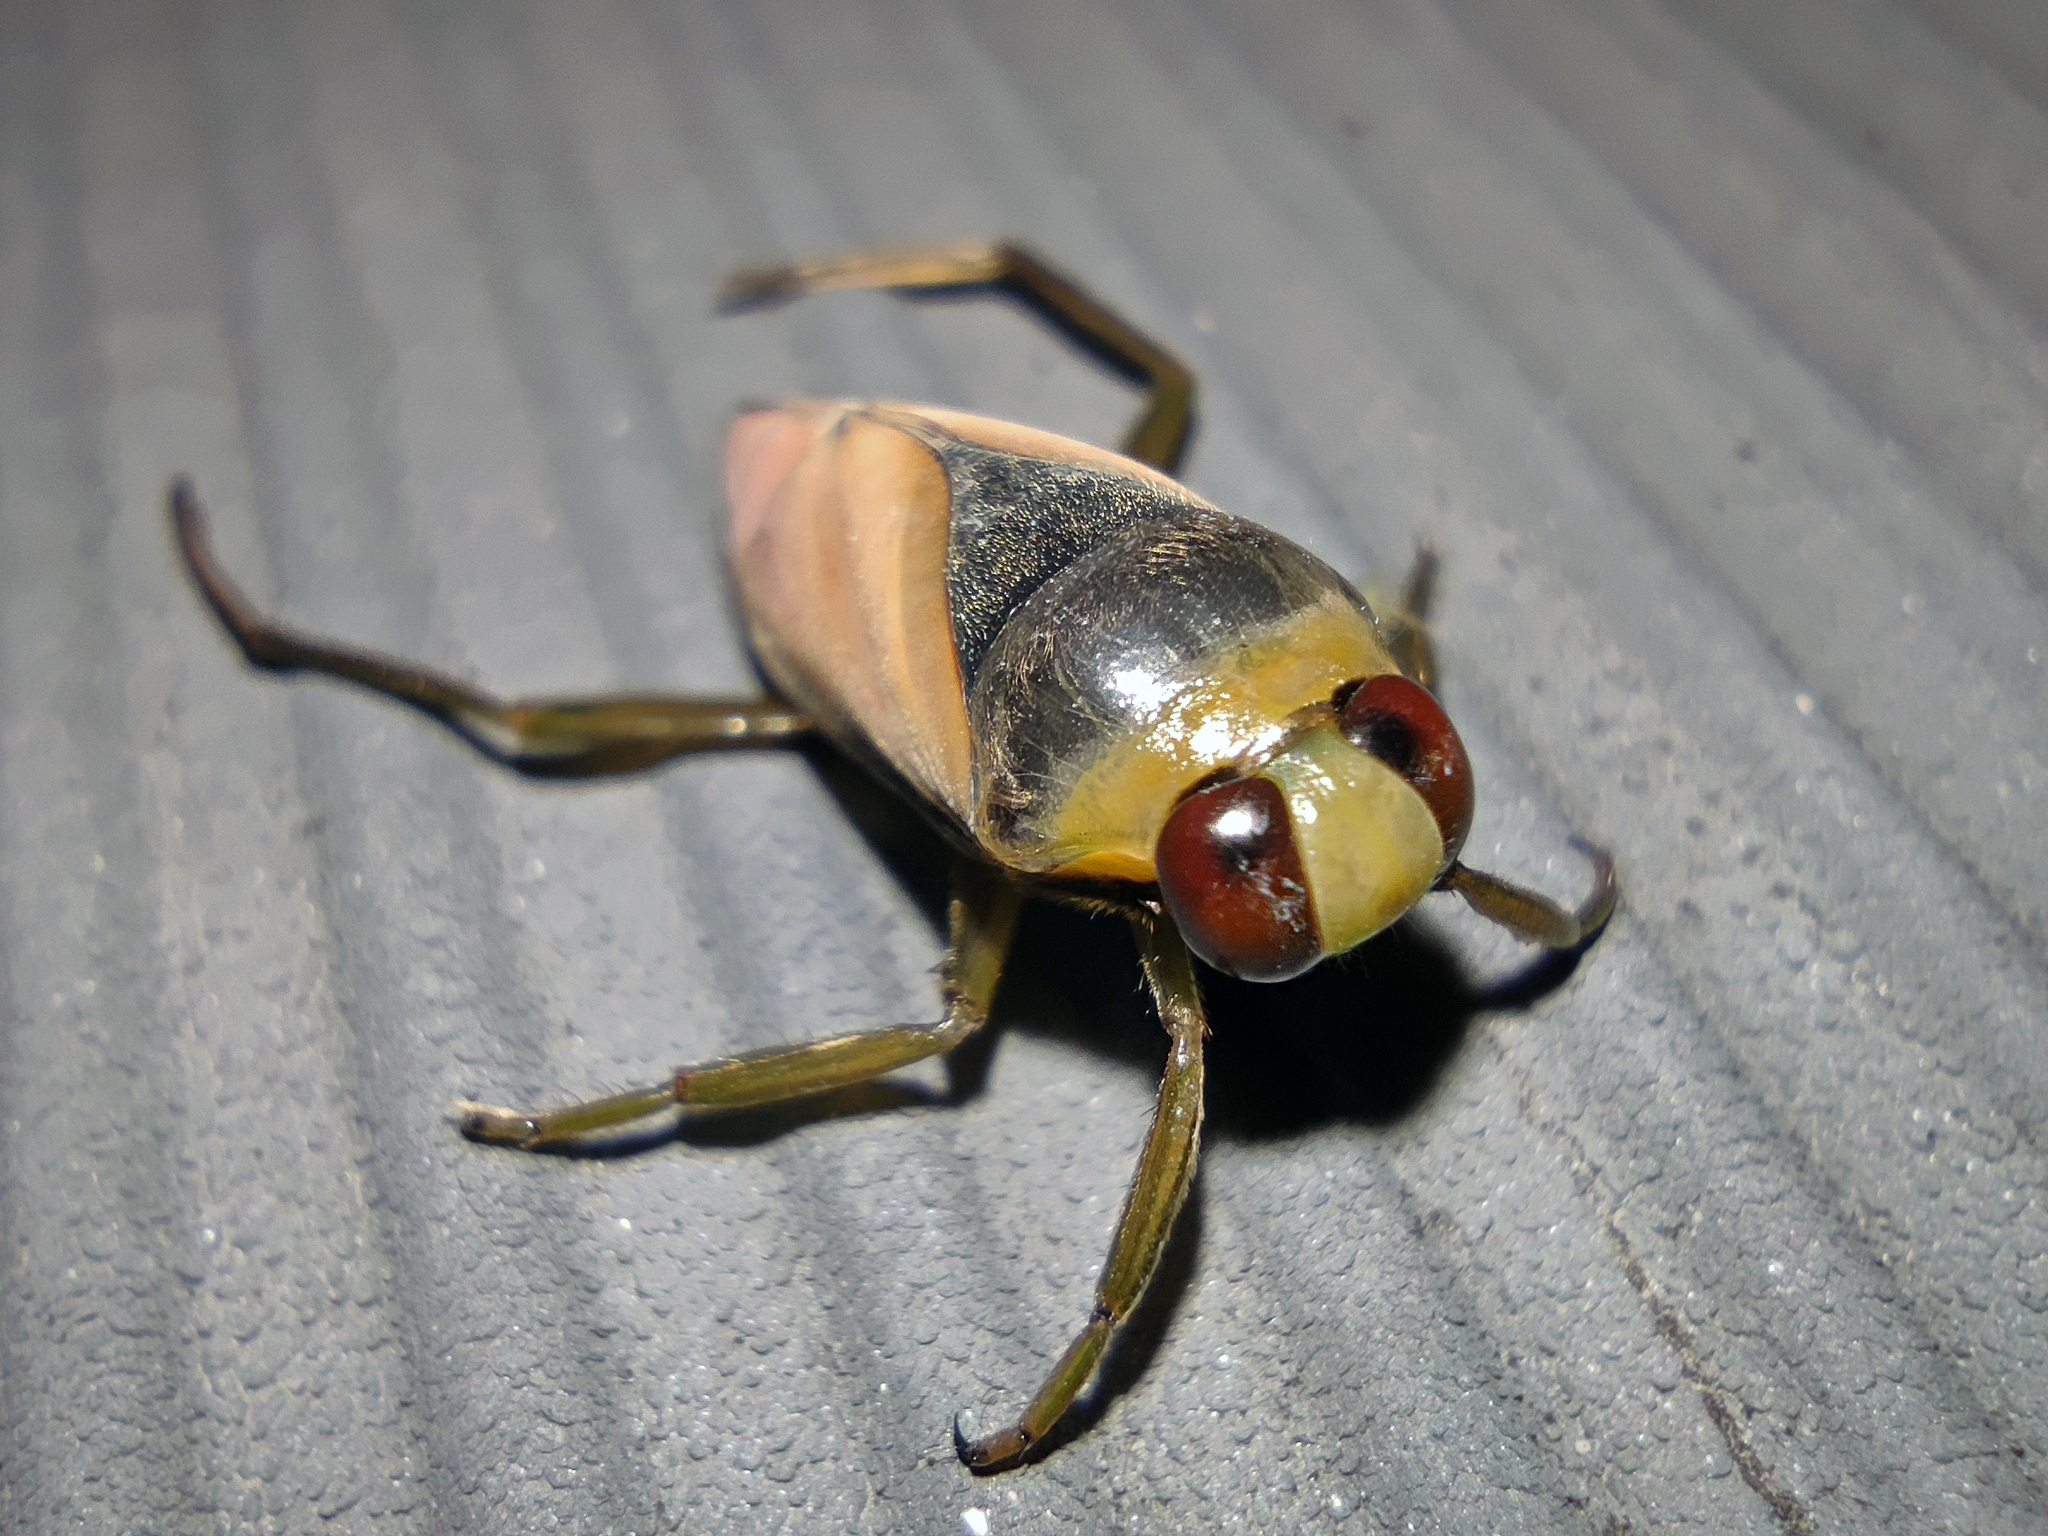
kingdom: Animalia
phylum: Arthropoda
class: Insecta
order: Hemiptera
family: Notonectidae
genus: Notonecta
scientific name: Notonecta glauca
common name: Common water-boatman
